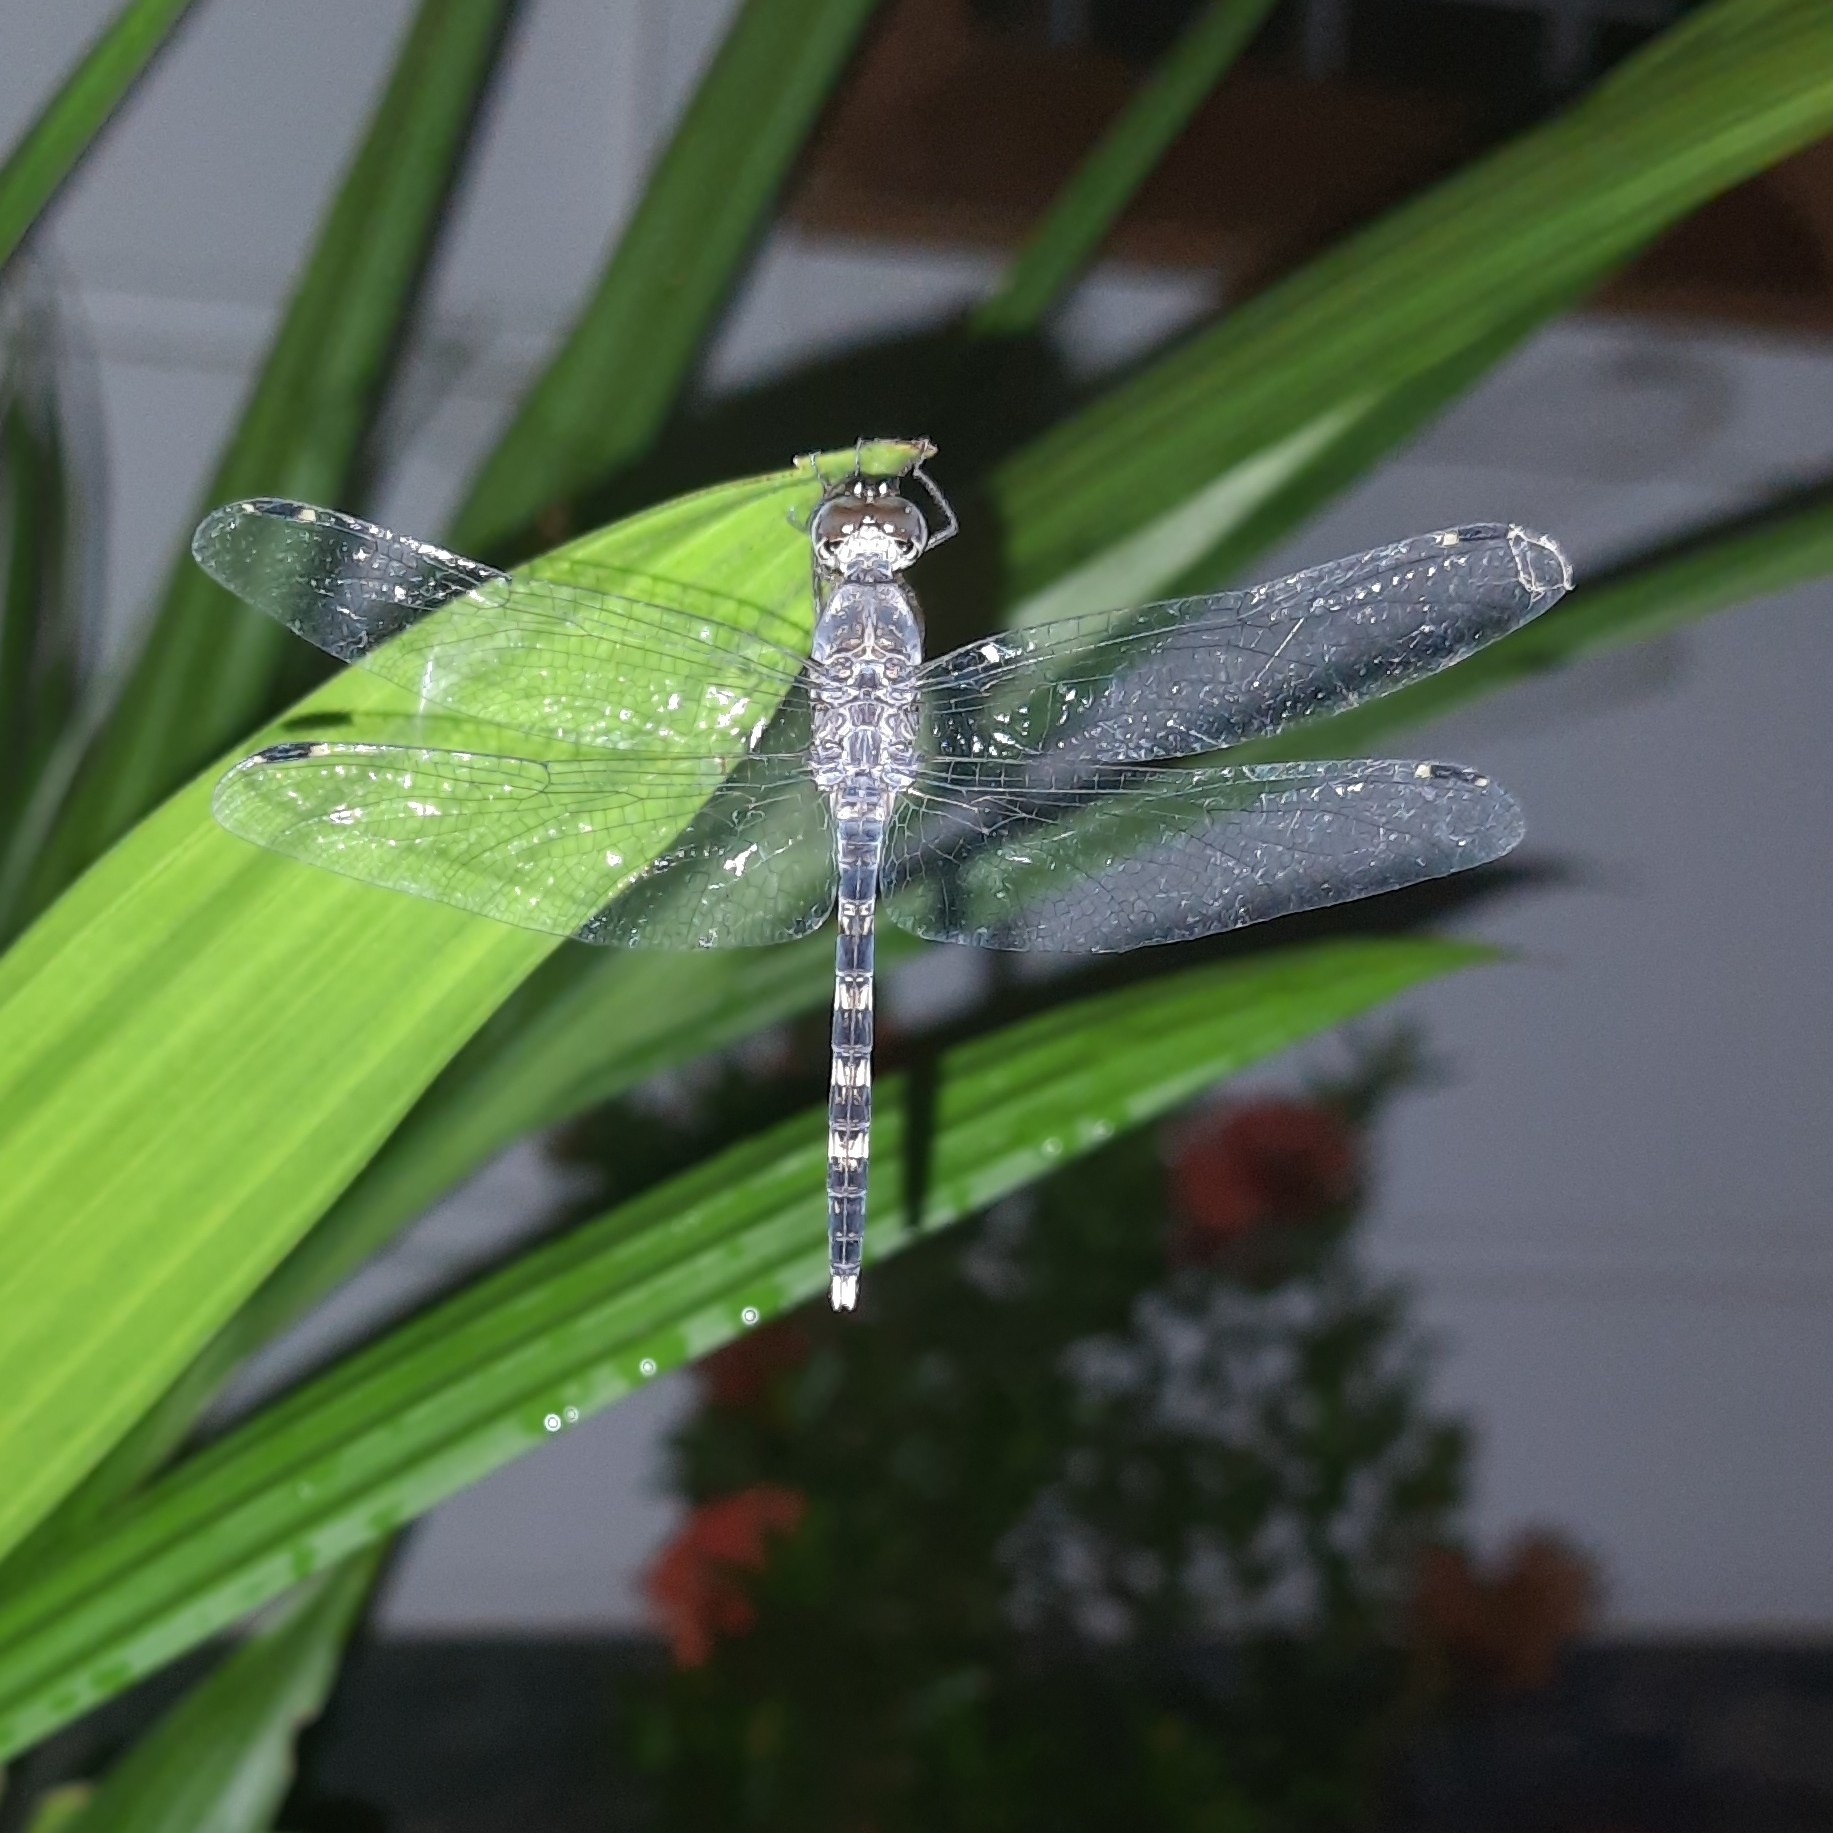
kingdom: Animalia
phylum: Arthropoda
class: Insecta
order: Odonata
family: Libellulidae
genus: Bradinopyga
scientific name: Bradinopyga geminata
